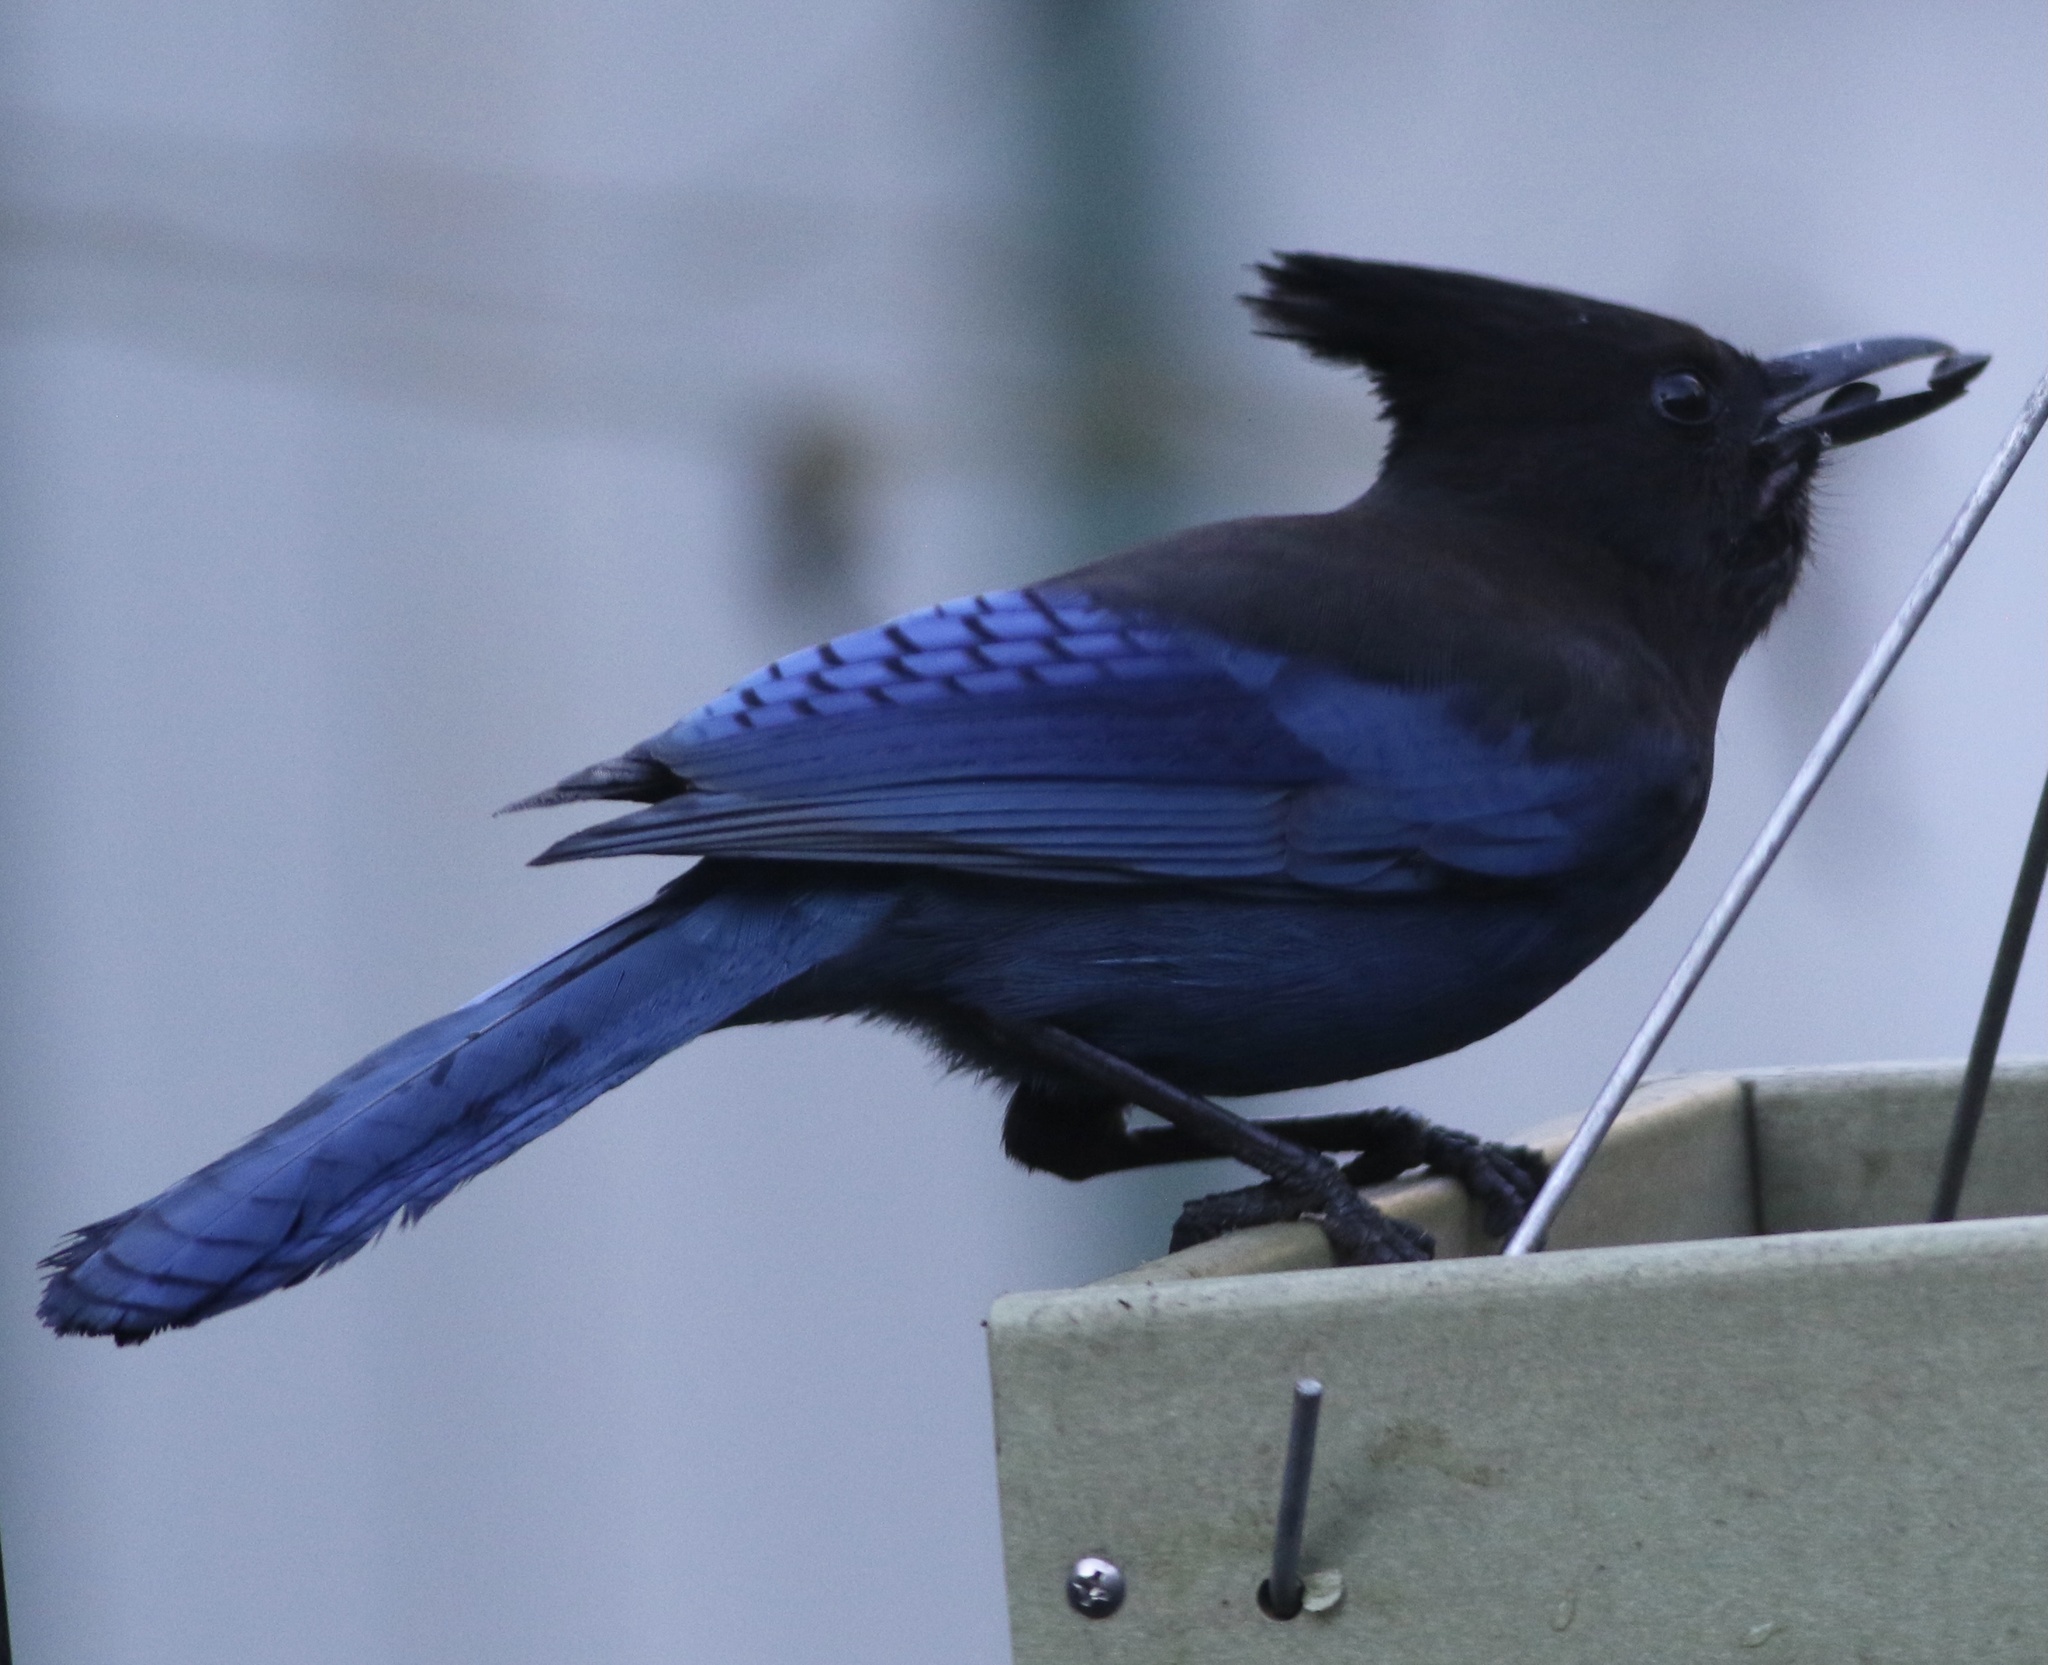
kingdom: Animalia
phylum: Chordata
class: Aves
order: Passeriformes
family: Corvidae
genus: Cyanocitta
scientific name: Cyanocitta stelleri
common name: Steller's jay
